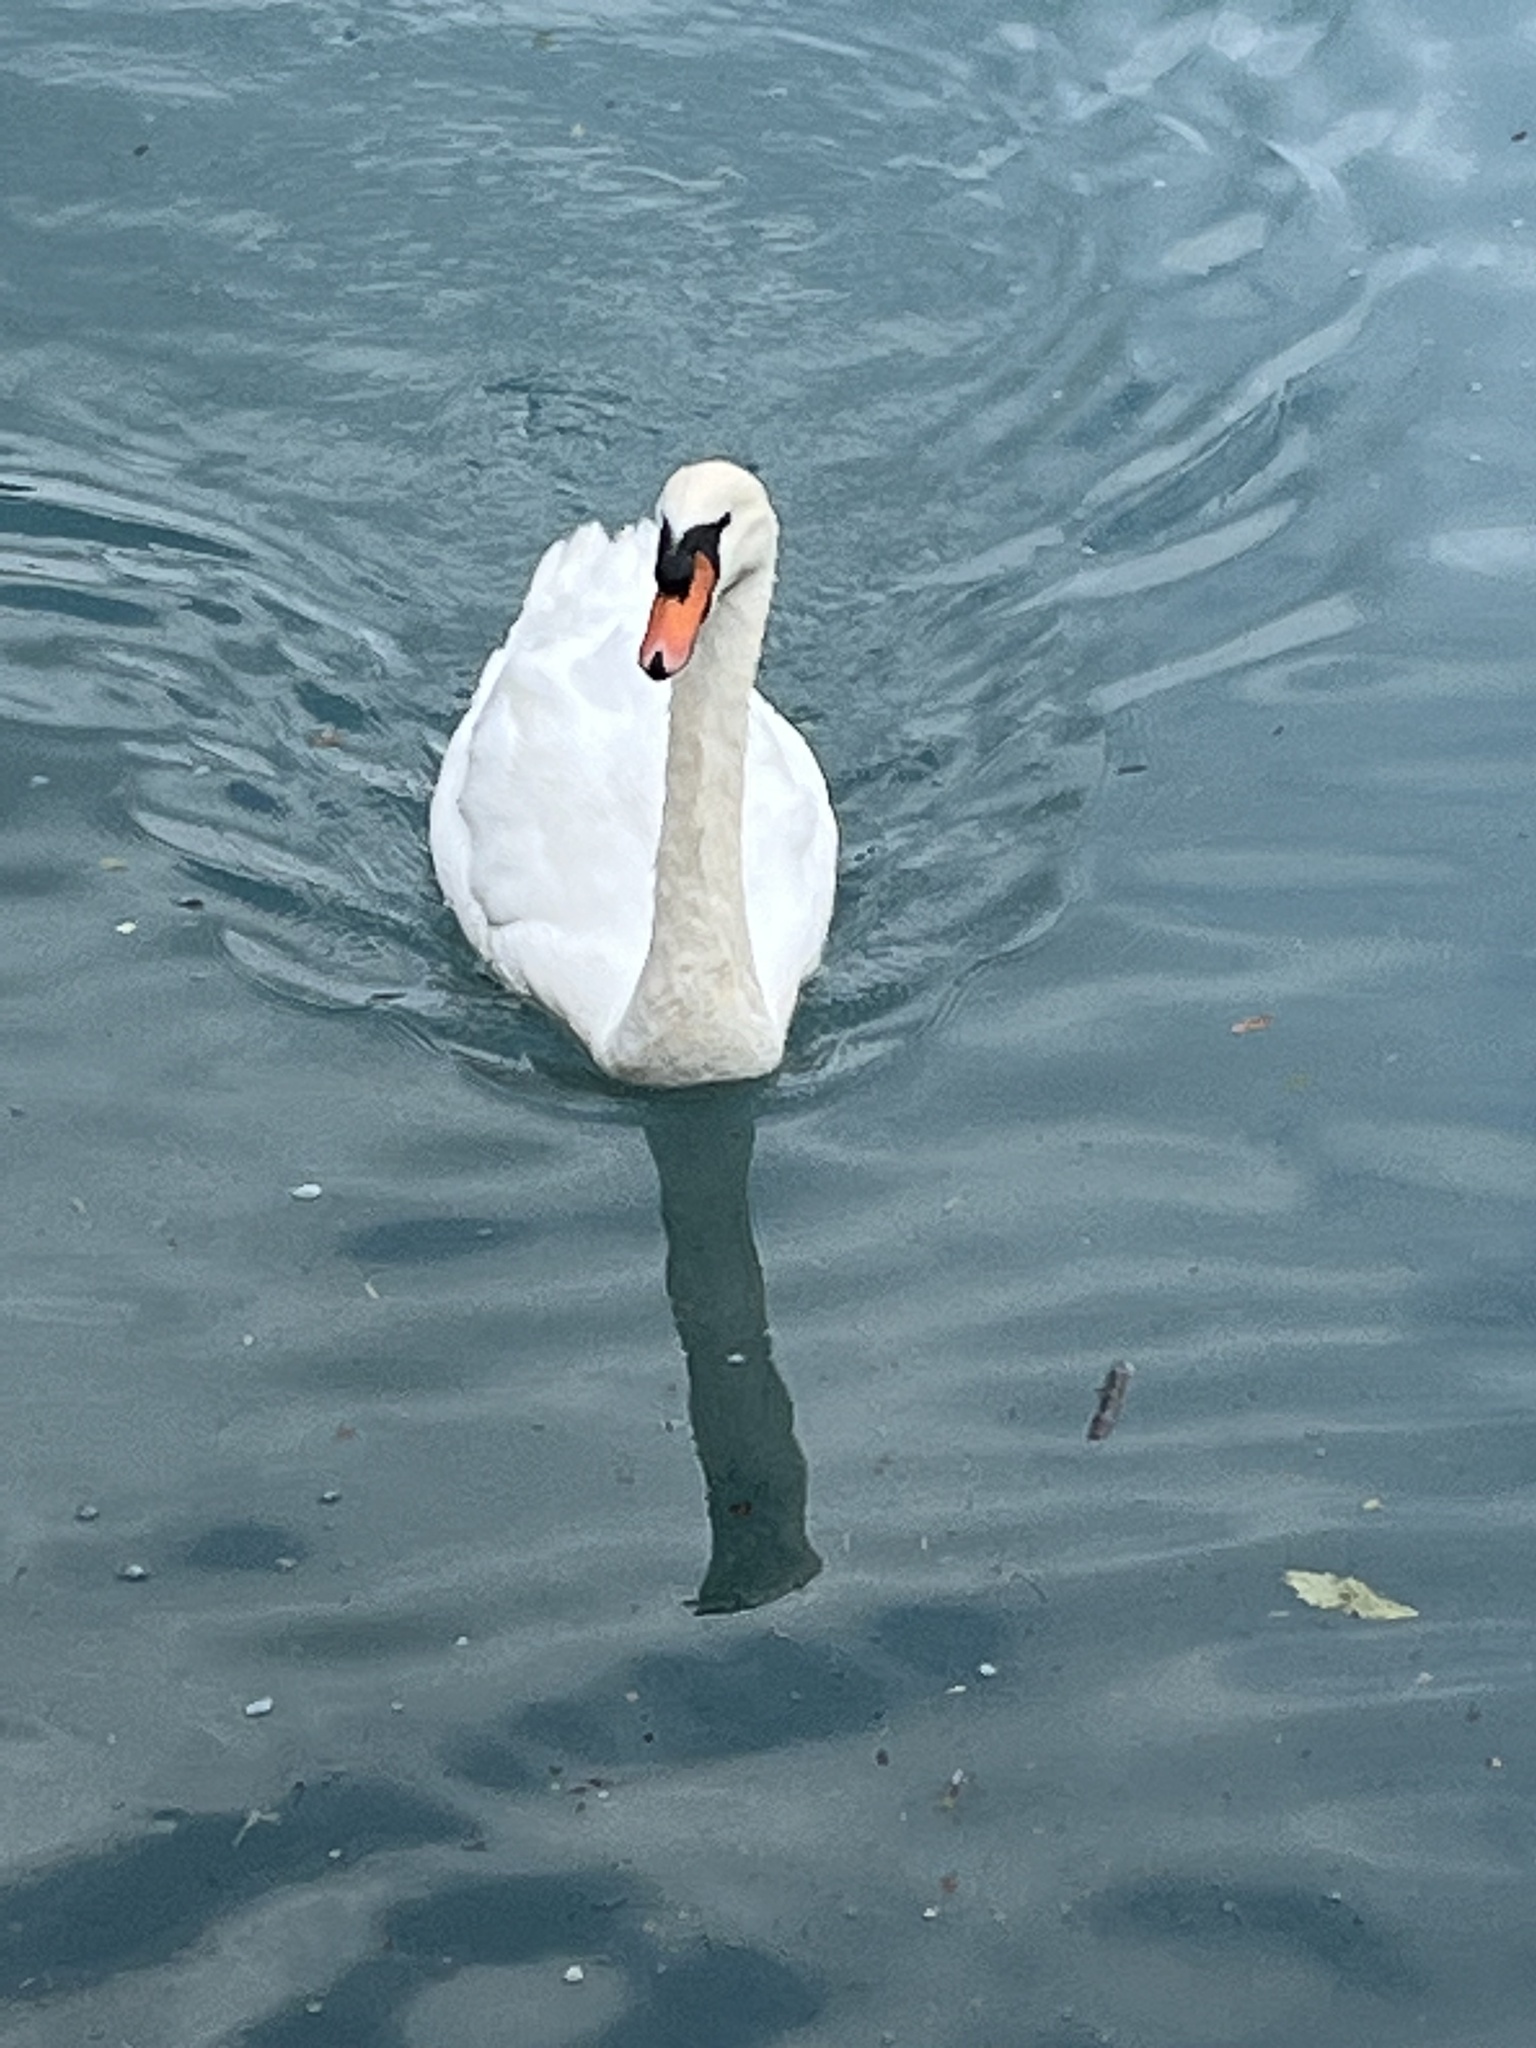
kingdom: Animalia
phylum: Chordata
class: Aves
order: Anseriformes
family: Anatidae
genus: Cygnus
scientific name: Cygnus olor
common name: Mute swan
